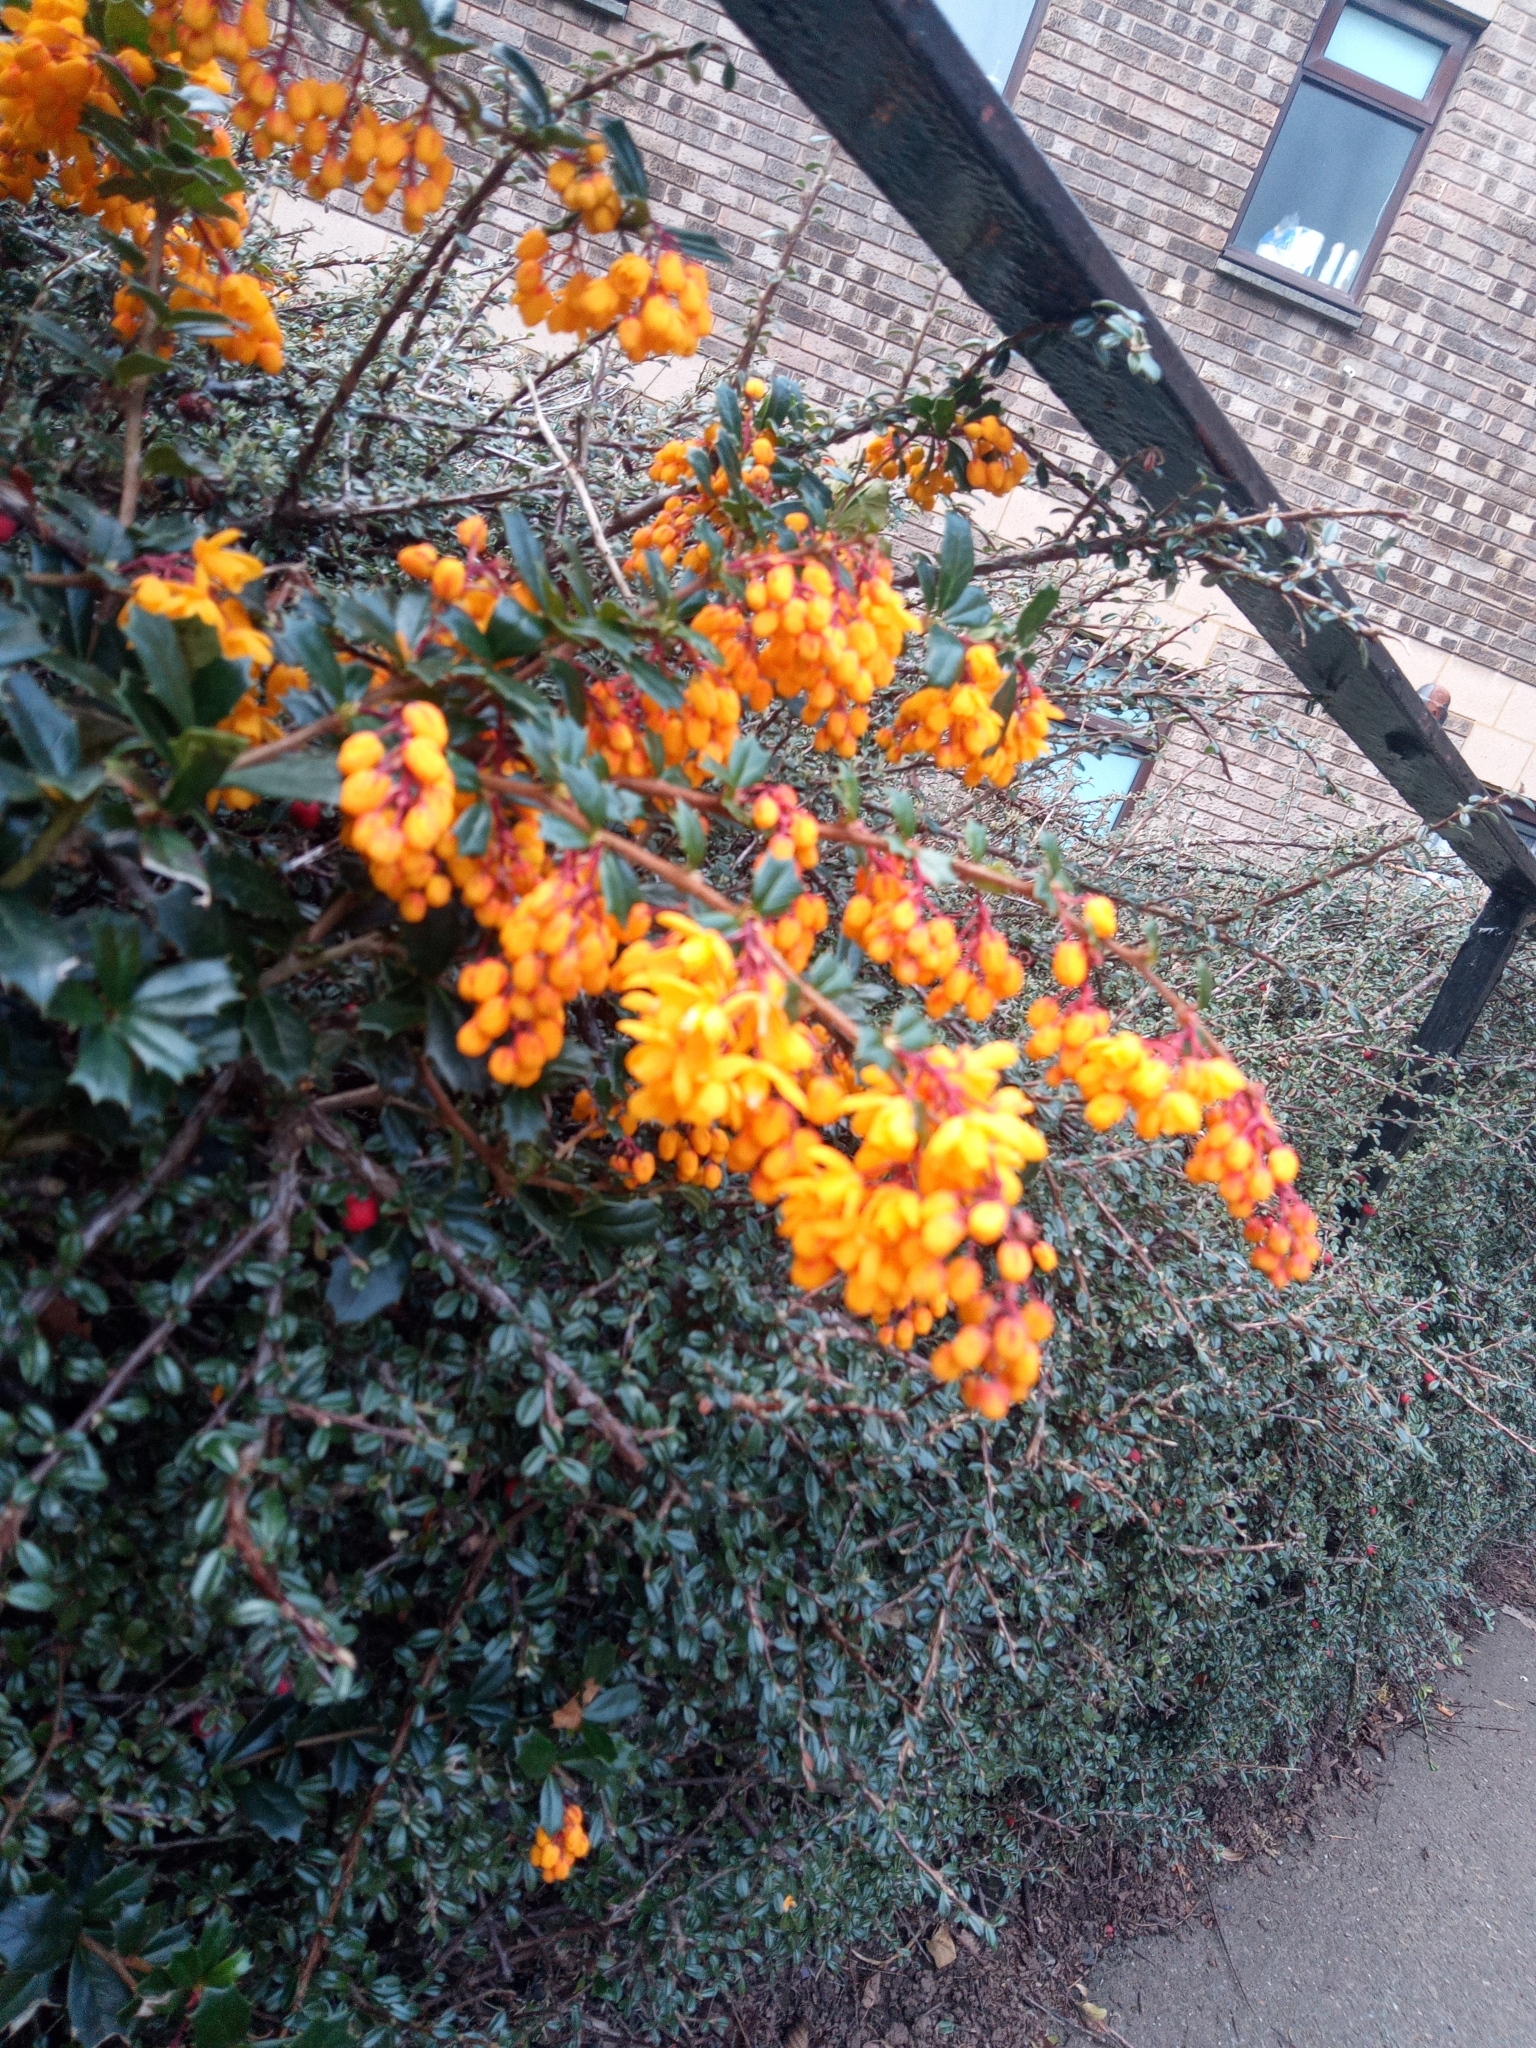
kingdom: Plantae
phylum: Tracheophyta
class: Magnoliopsida
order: Ranunculales
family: Berberidaceae
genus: Berberis
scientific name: Berberis darwinii
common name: Darwin's barberry
